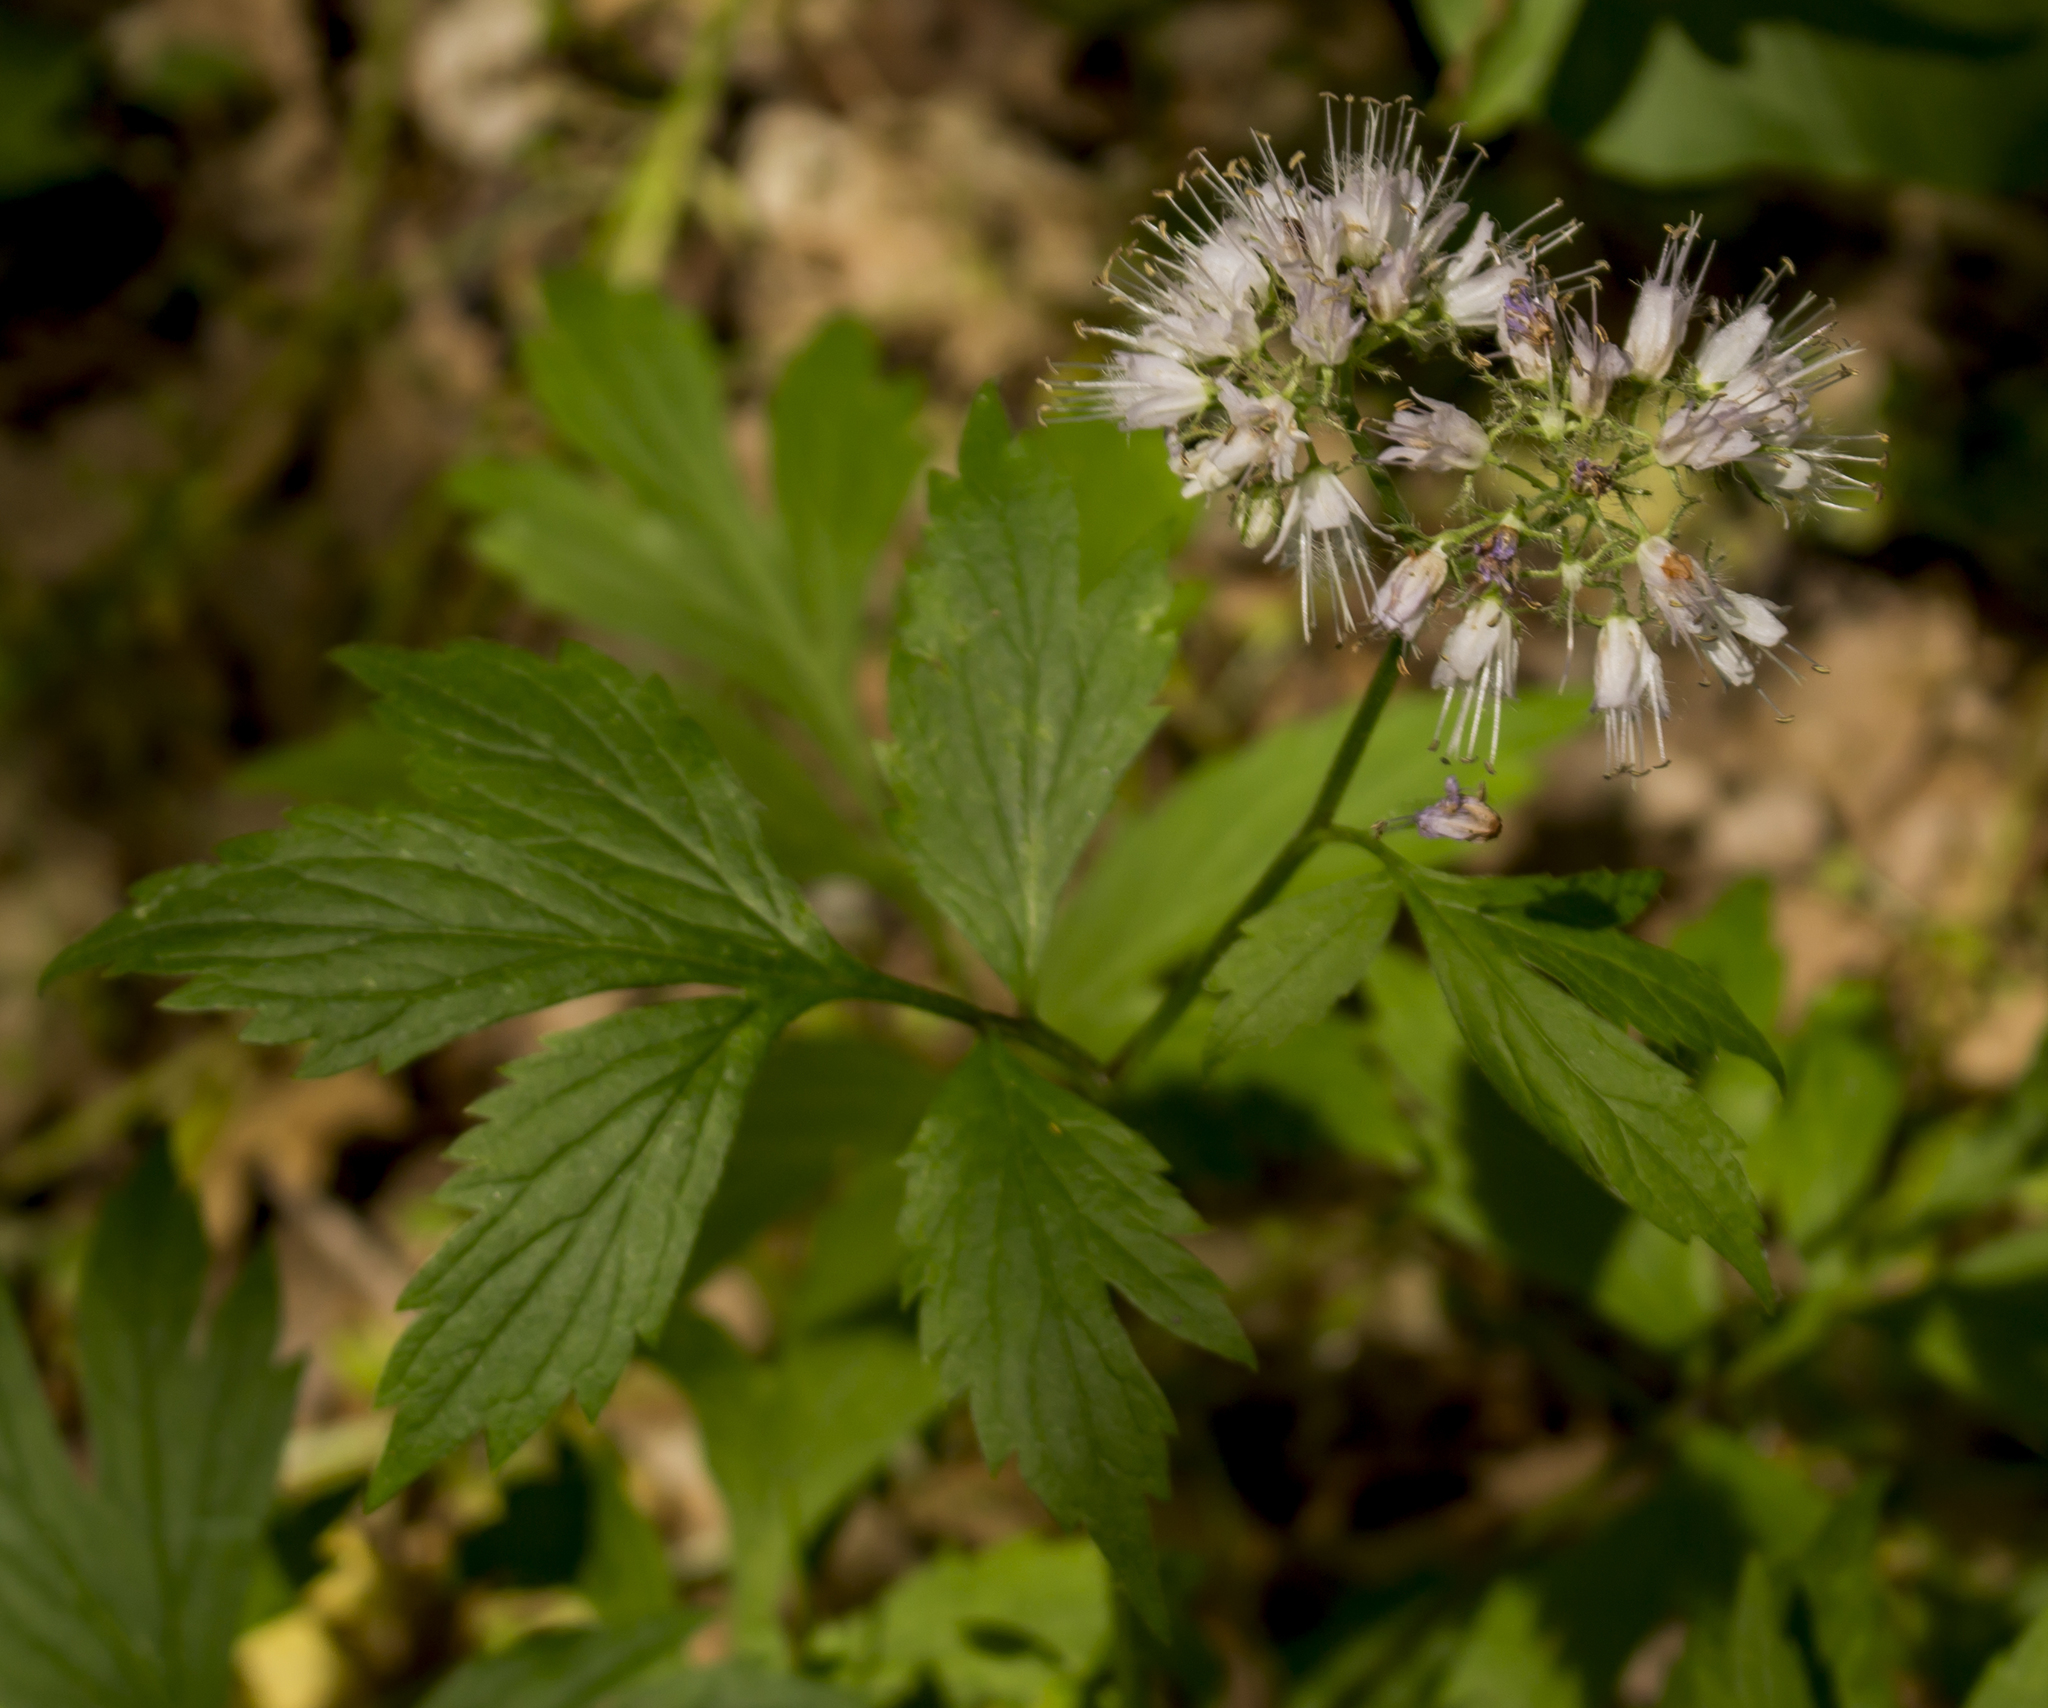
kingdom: Plantae
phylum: Tracheophyta
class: Magnoliopsida
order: Boraginales
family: Hydrophyllaceae
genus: Hydrophyllum
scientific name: Hydrophyllum virginianum
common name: Virginia waterleaf
